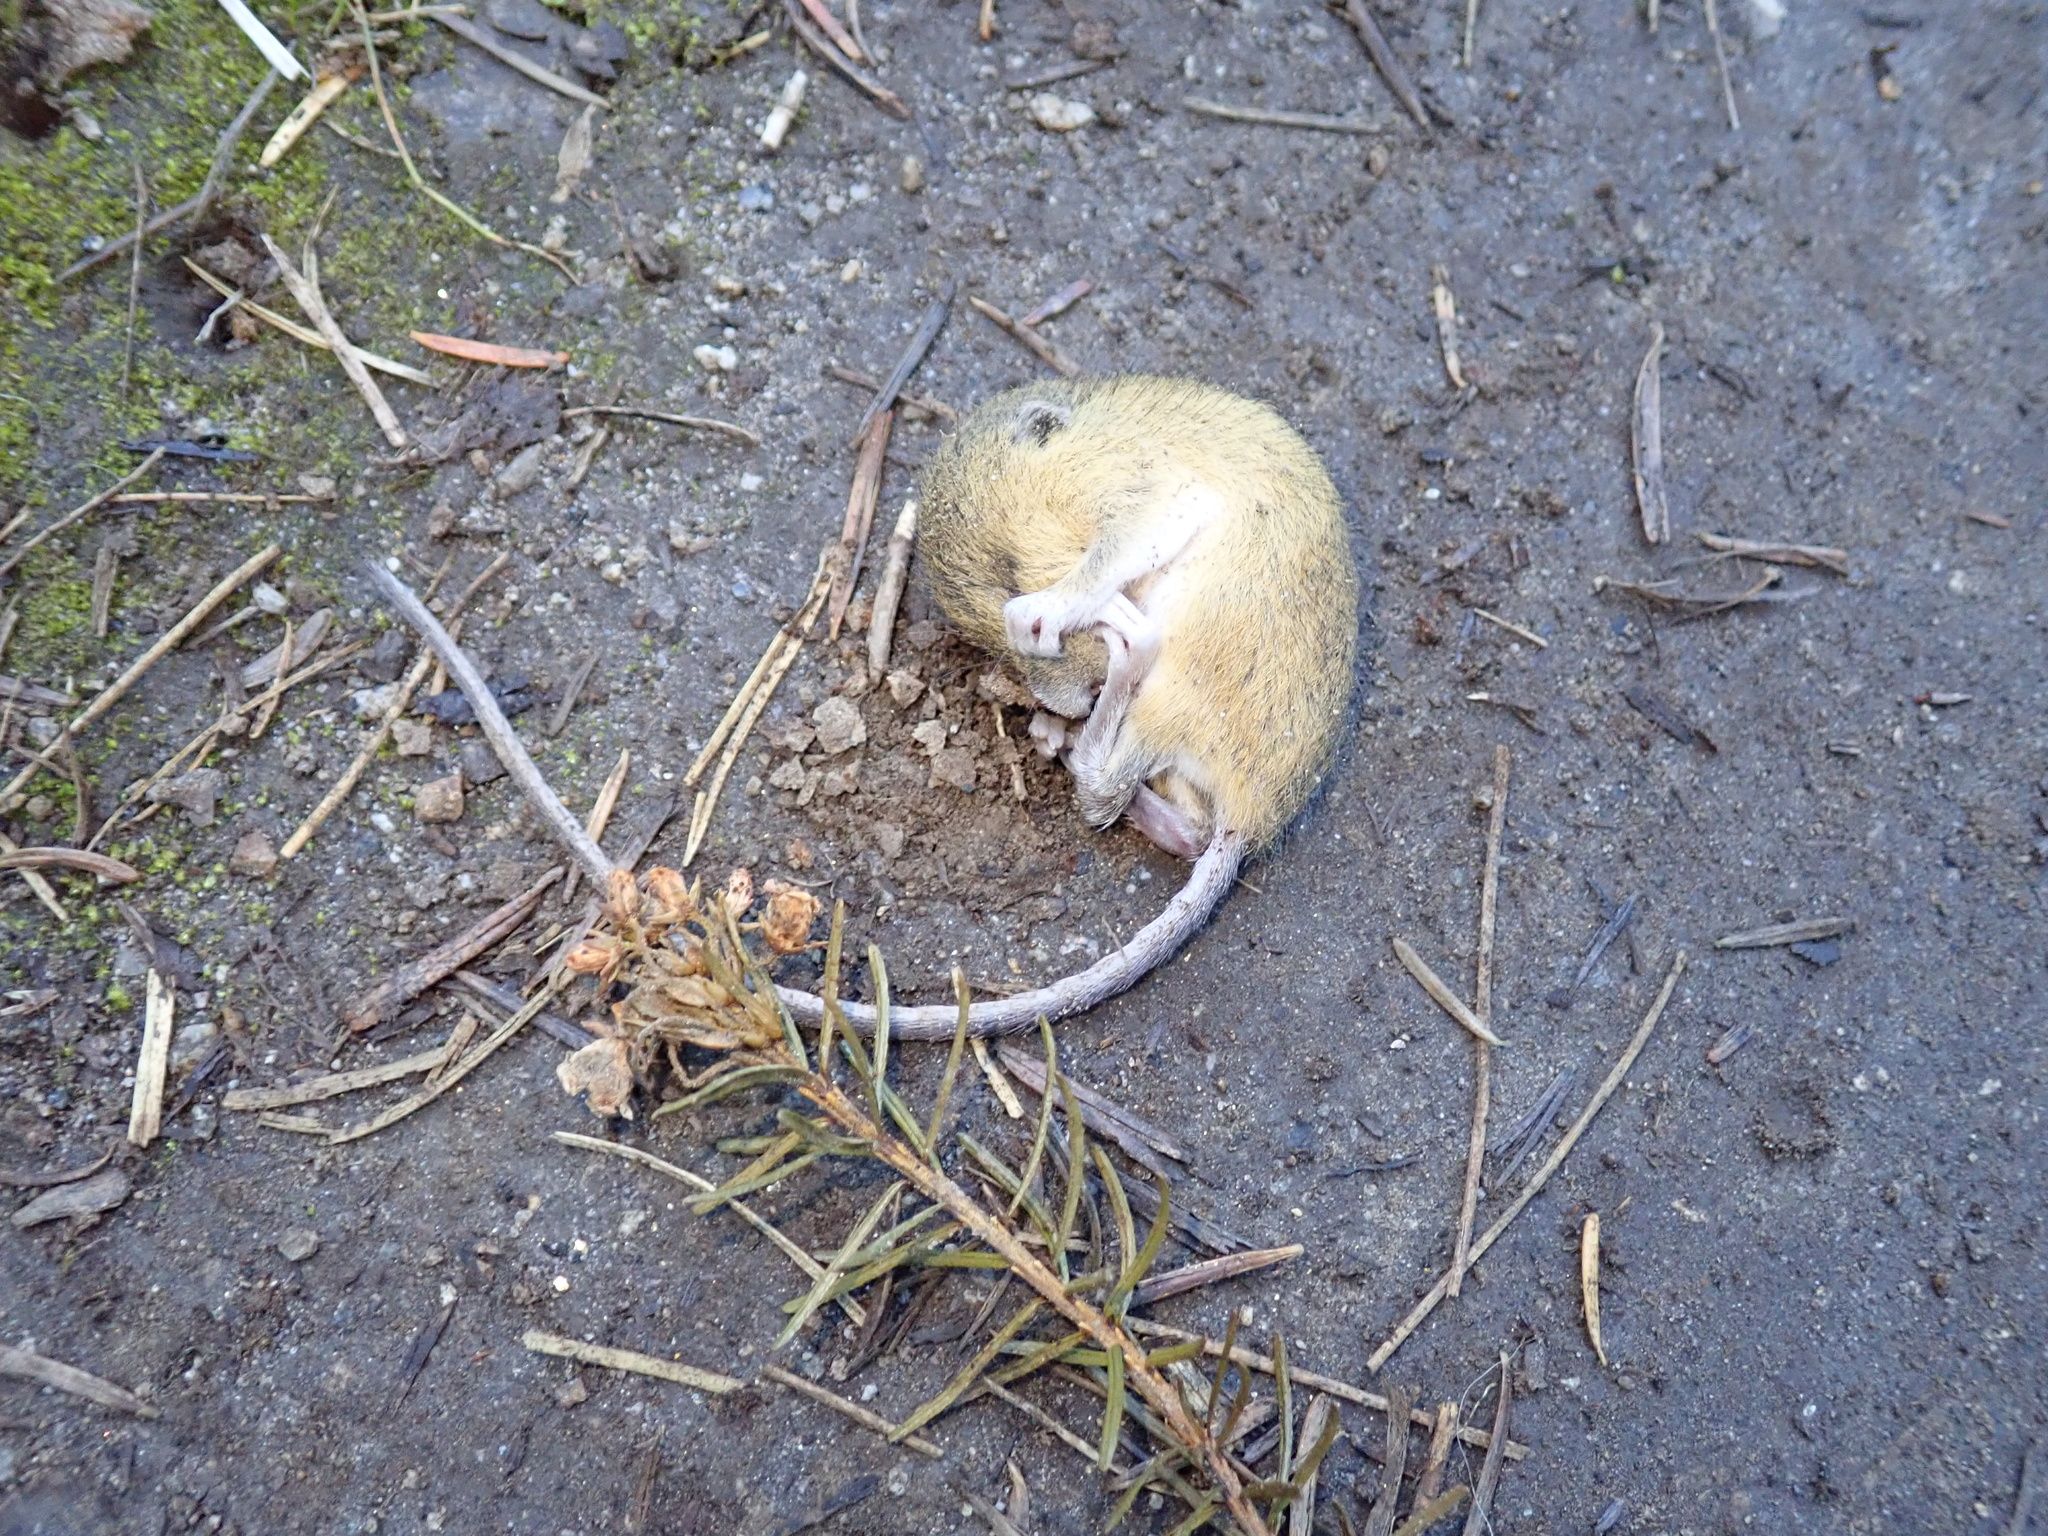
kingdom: Animalia
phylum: Chordata
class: Mammalia
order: Rodentia
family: Dipodidae
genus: Zapus
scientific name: Zapus trinotatus
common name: Pacific jumping mouse
